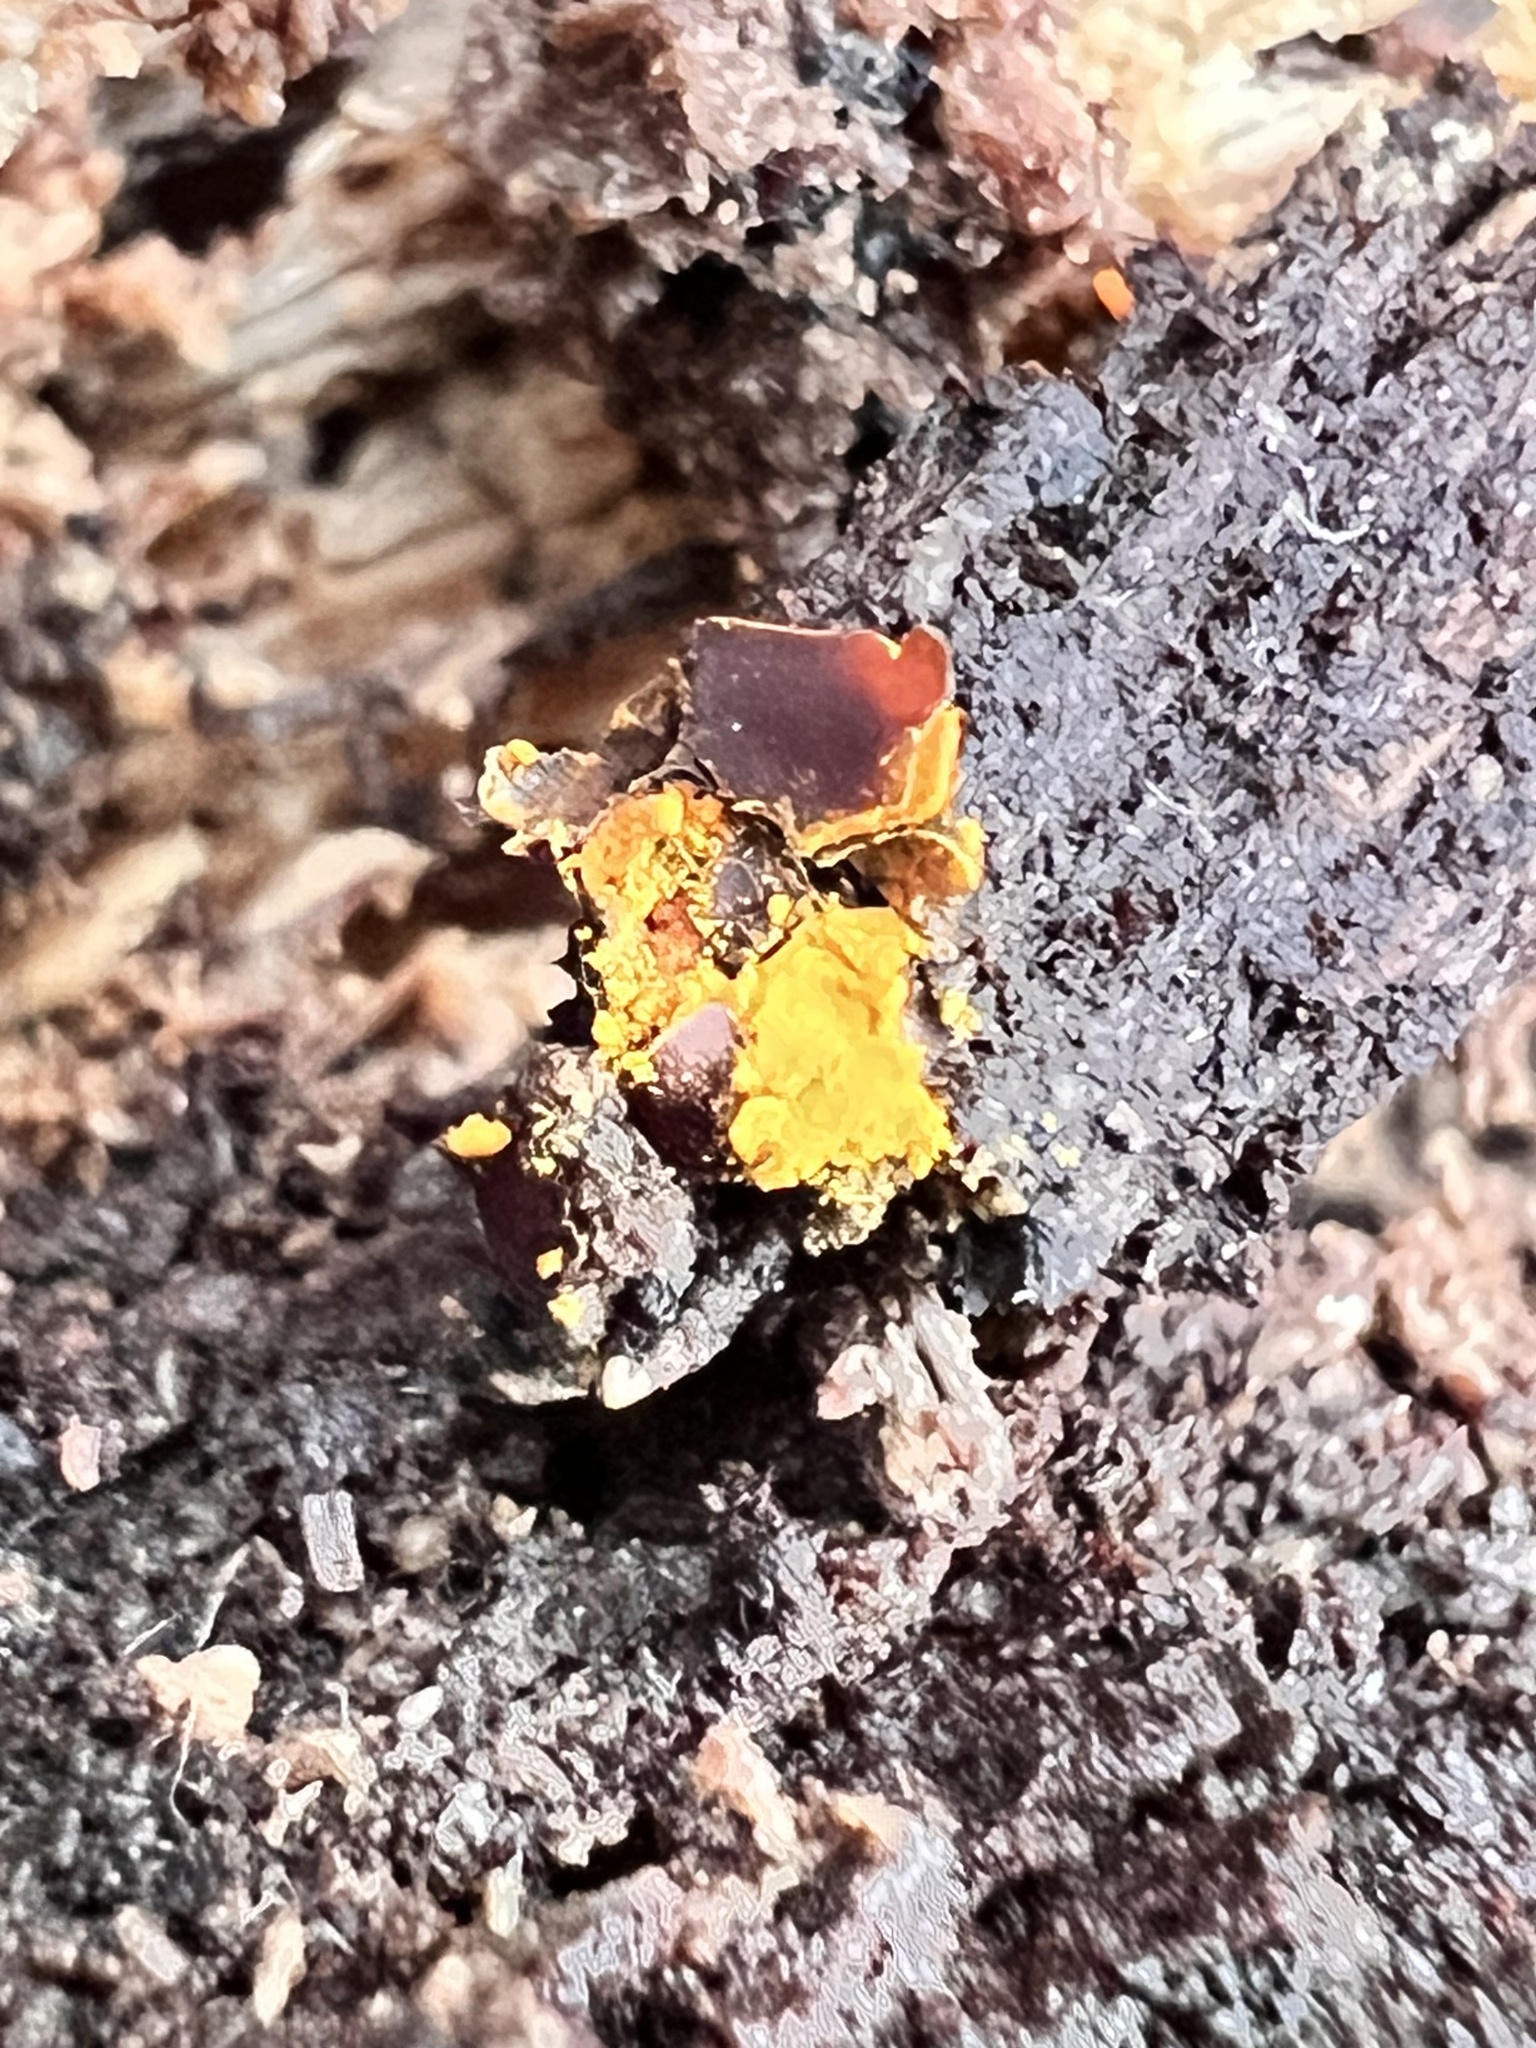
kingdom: Protozoa
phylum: Mycetozoa
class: Myxomycetes
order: Trichiales
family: Trichiaceae
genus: Perichaena
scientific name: Perichaena depressa
